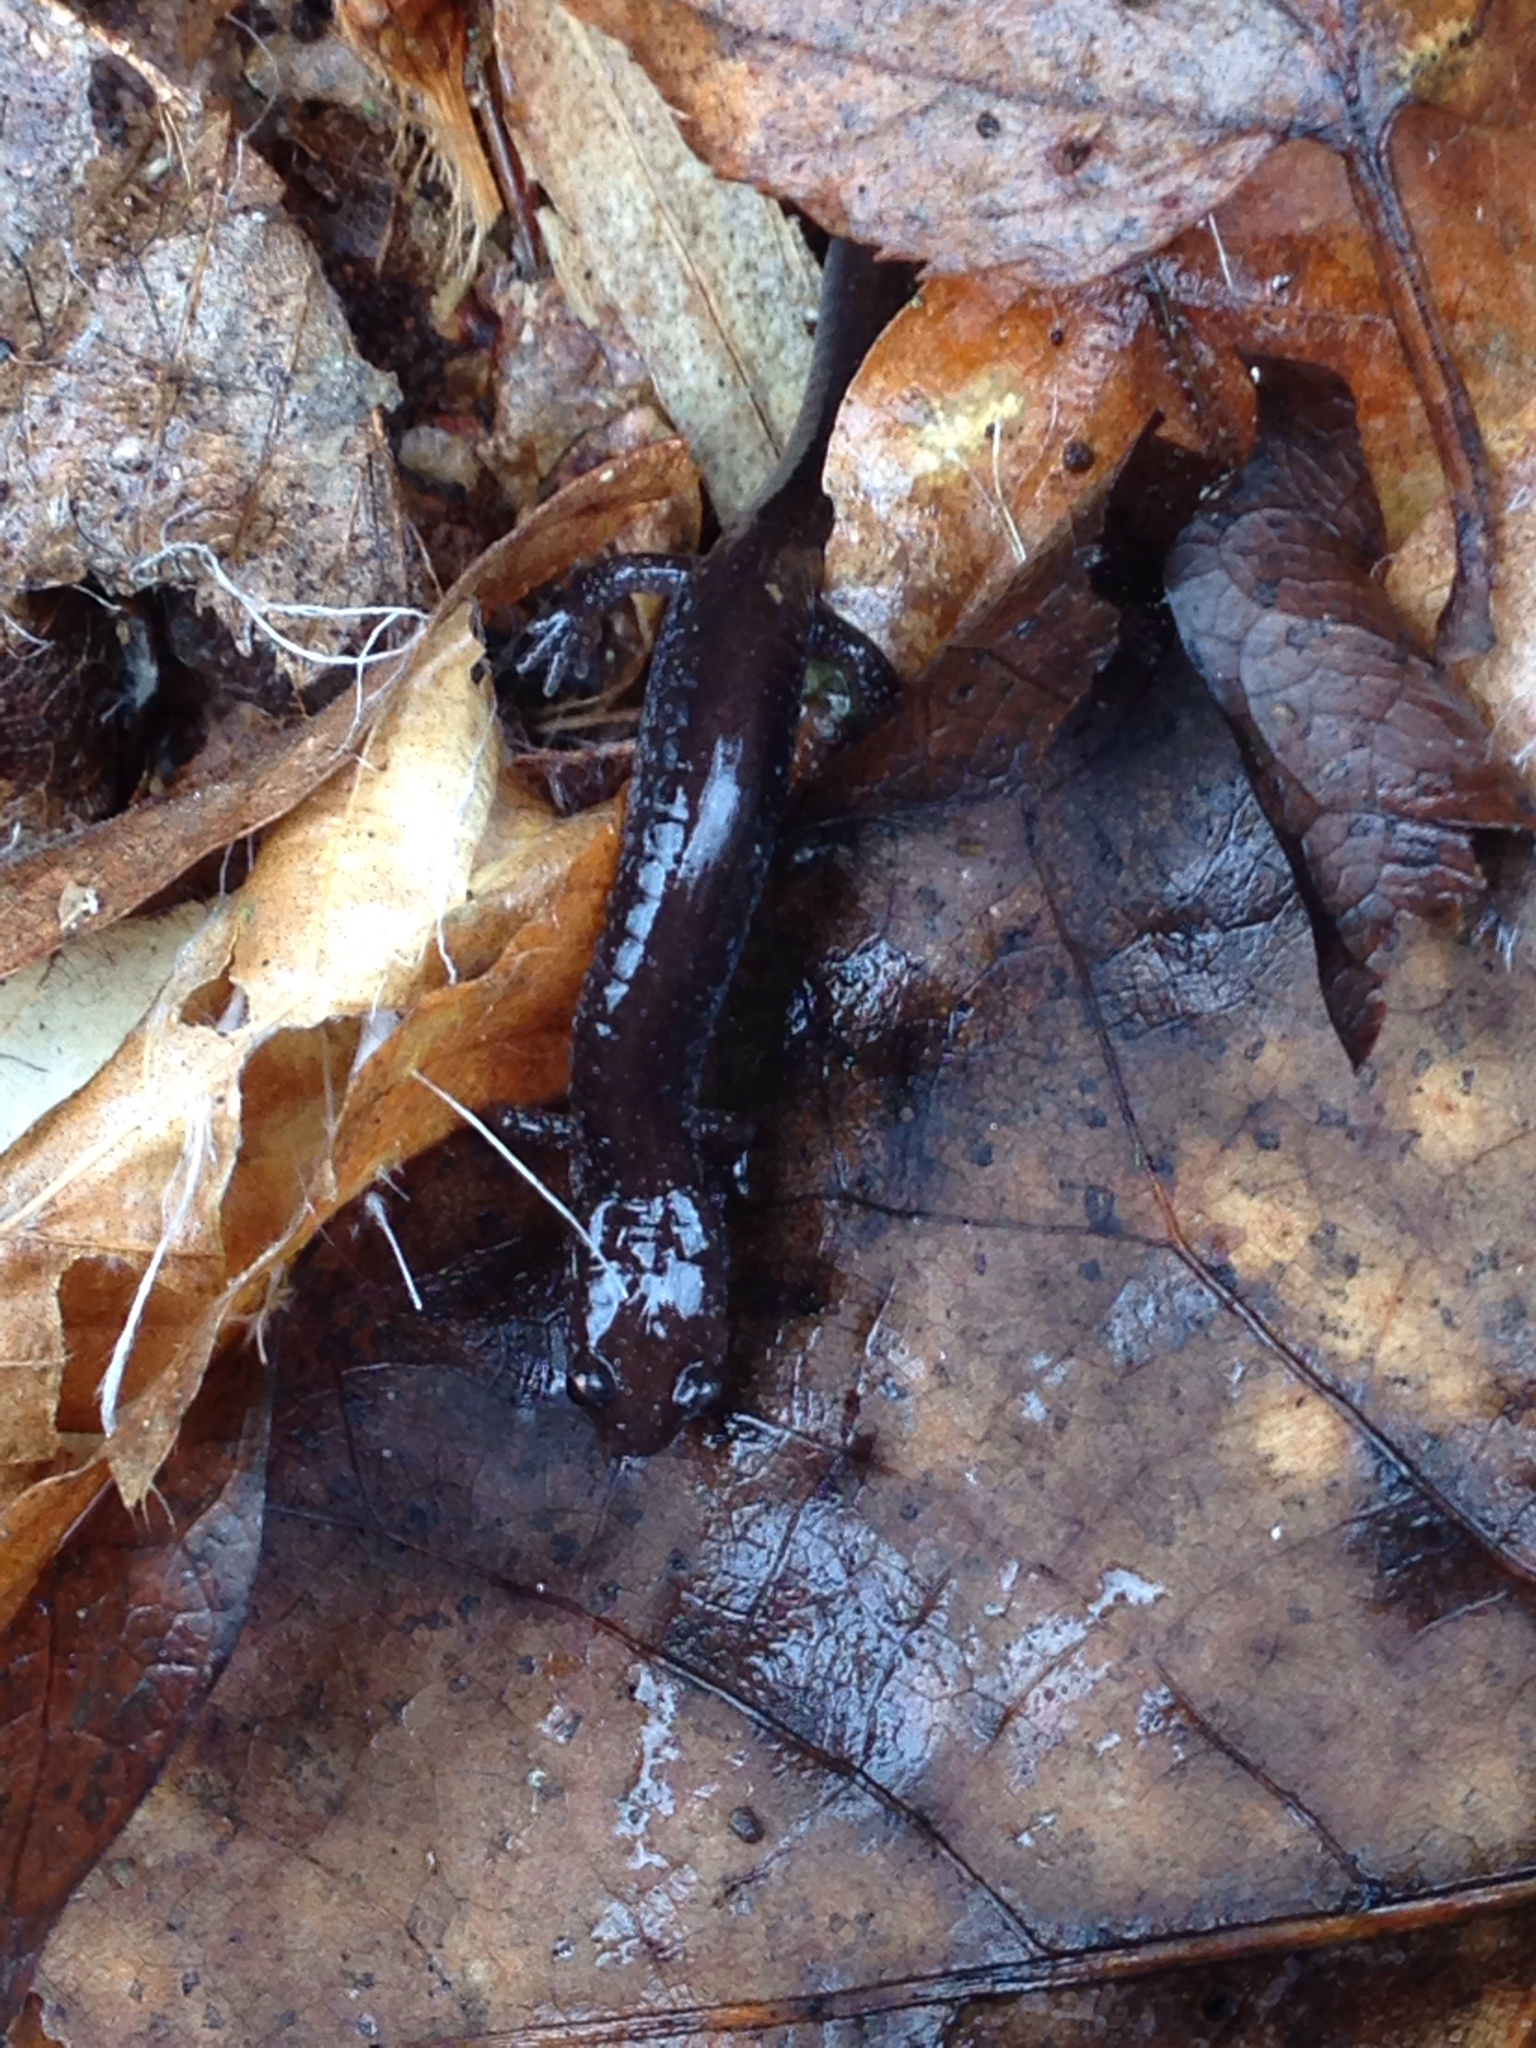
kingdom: Animalia
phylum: Chordata
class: Amphibia
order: Caudata
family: Plethodontidae
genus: Plethodon
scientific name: Plethodon cinereus
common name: Redback salamander
